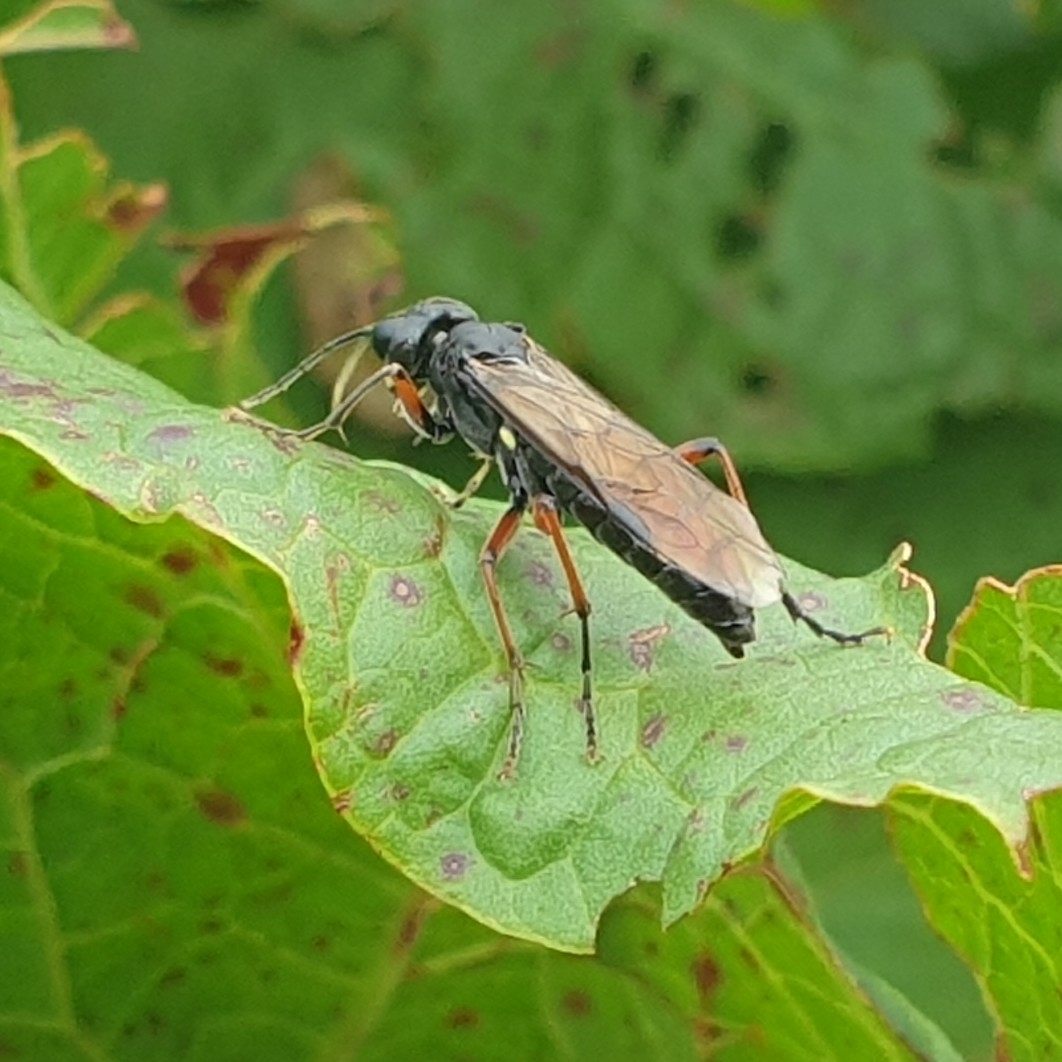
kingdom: Animalia
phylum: Arthropoda
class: Insecta
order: Hymenoptera
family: Tenthredinidae
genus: Tenthredo
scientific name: Tenthredo velox
